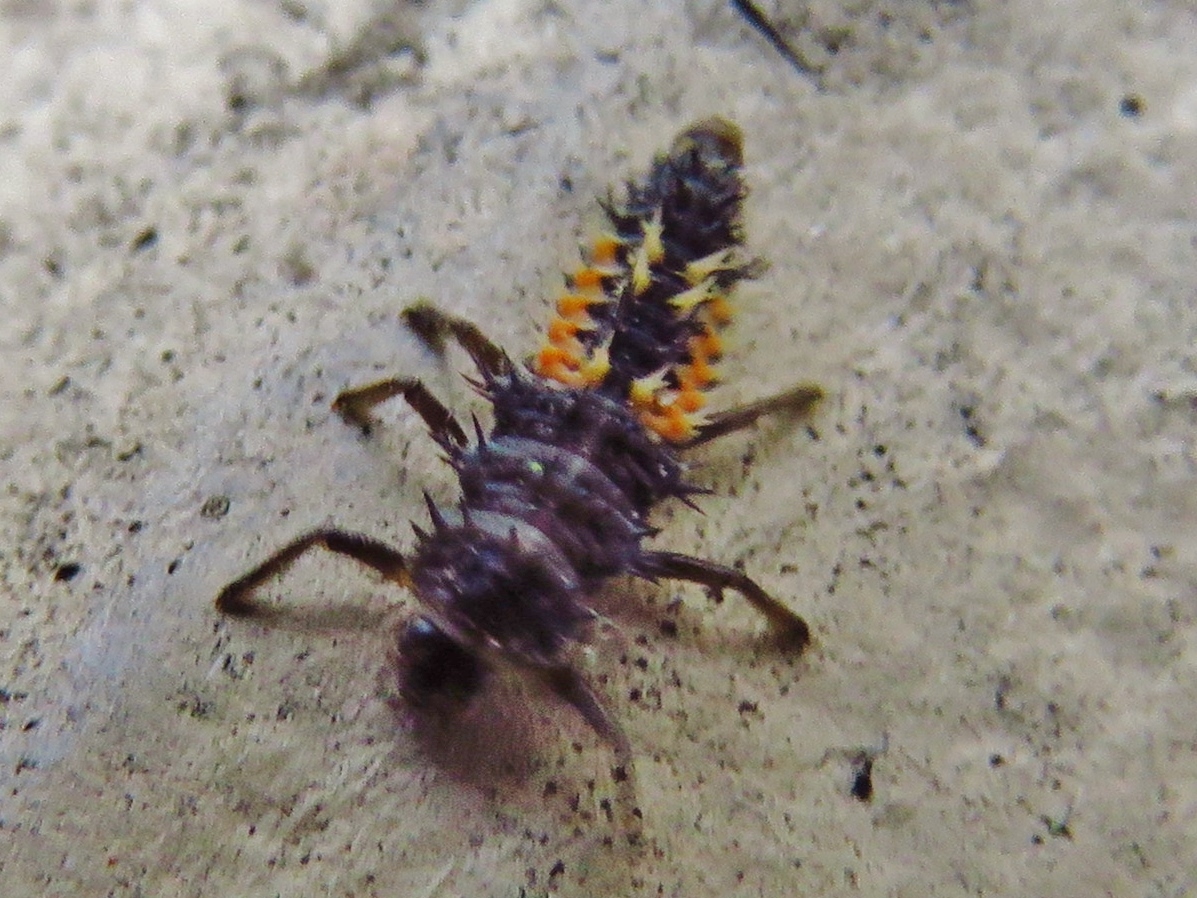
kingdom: Animalia
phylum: Arthropoda
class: Insecta
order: Coleoptera
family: Coccinellidae
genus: Harmonia
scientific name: Harmonia axyridis
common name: Harlequin ladybird
